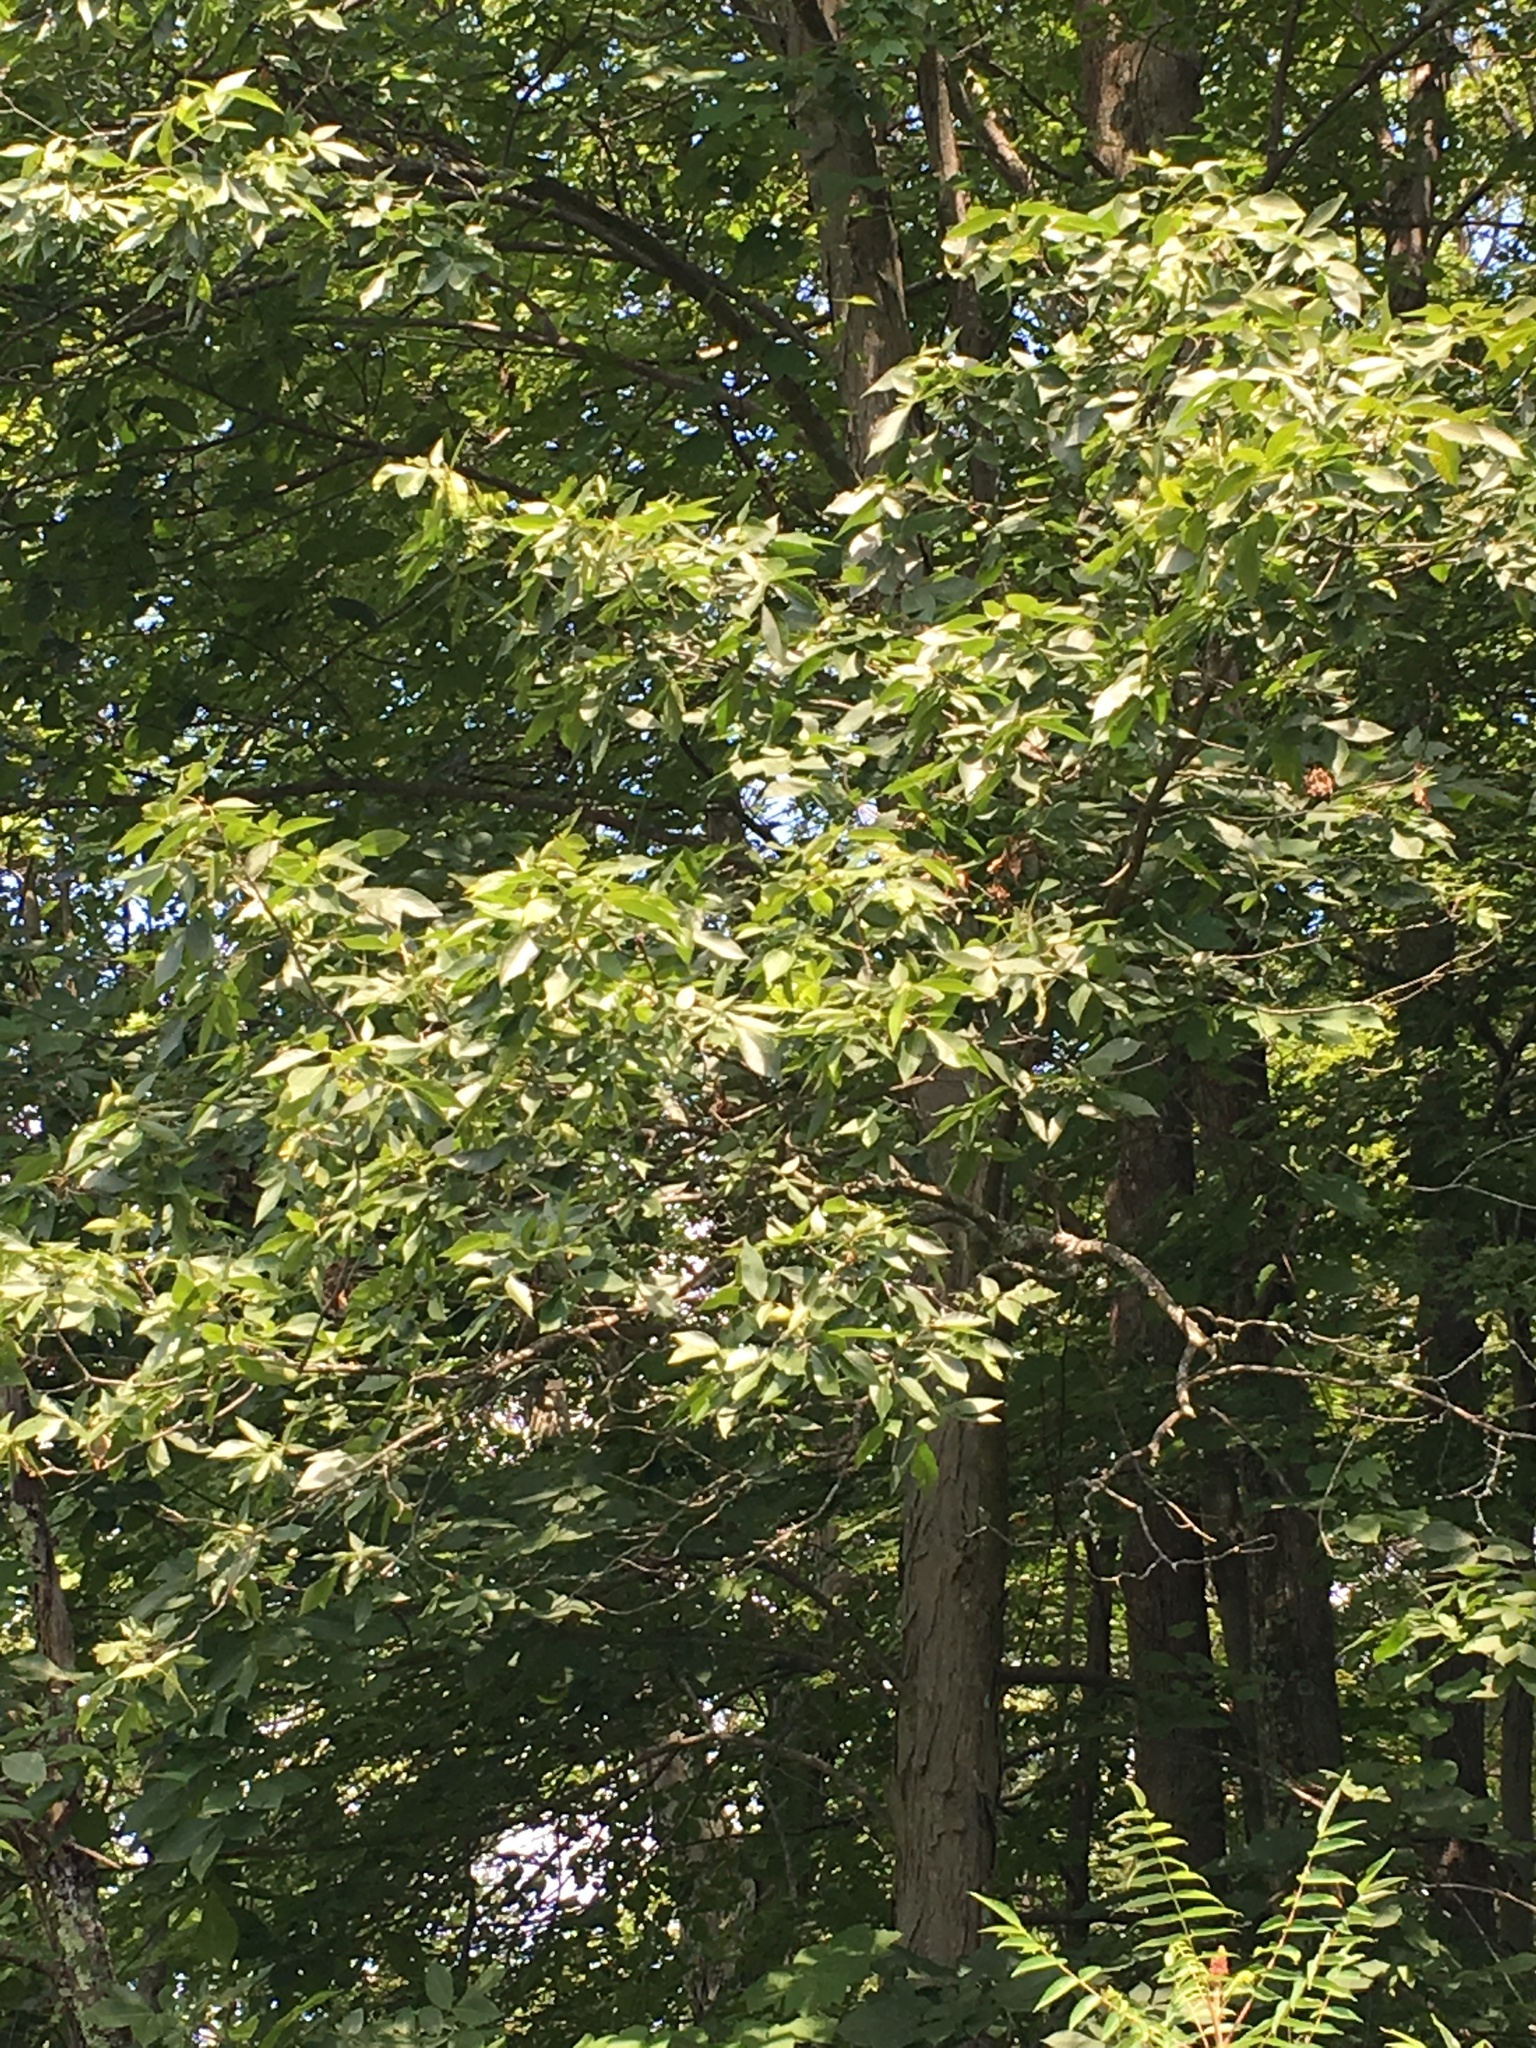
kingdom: Plantae
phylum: Tracheophyta
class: Magnoliopsida
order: Fagales
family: Juglandaceae
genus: Carya
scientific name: Carya ovata
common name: Shagbark hickory
